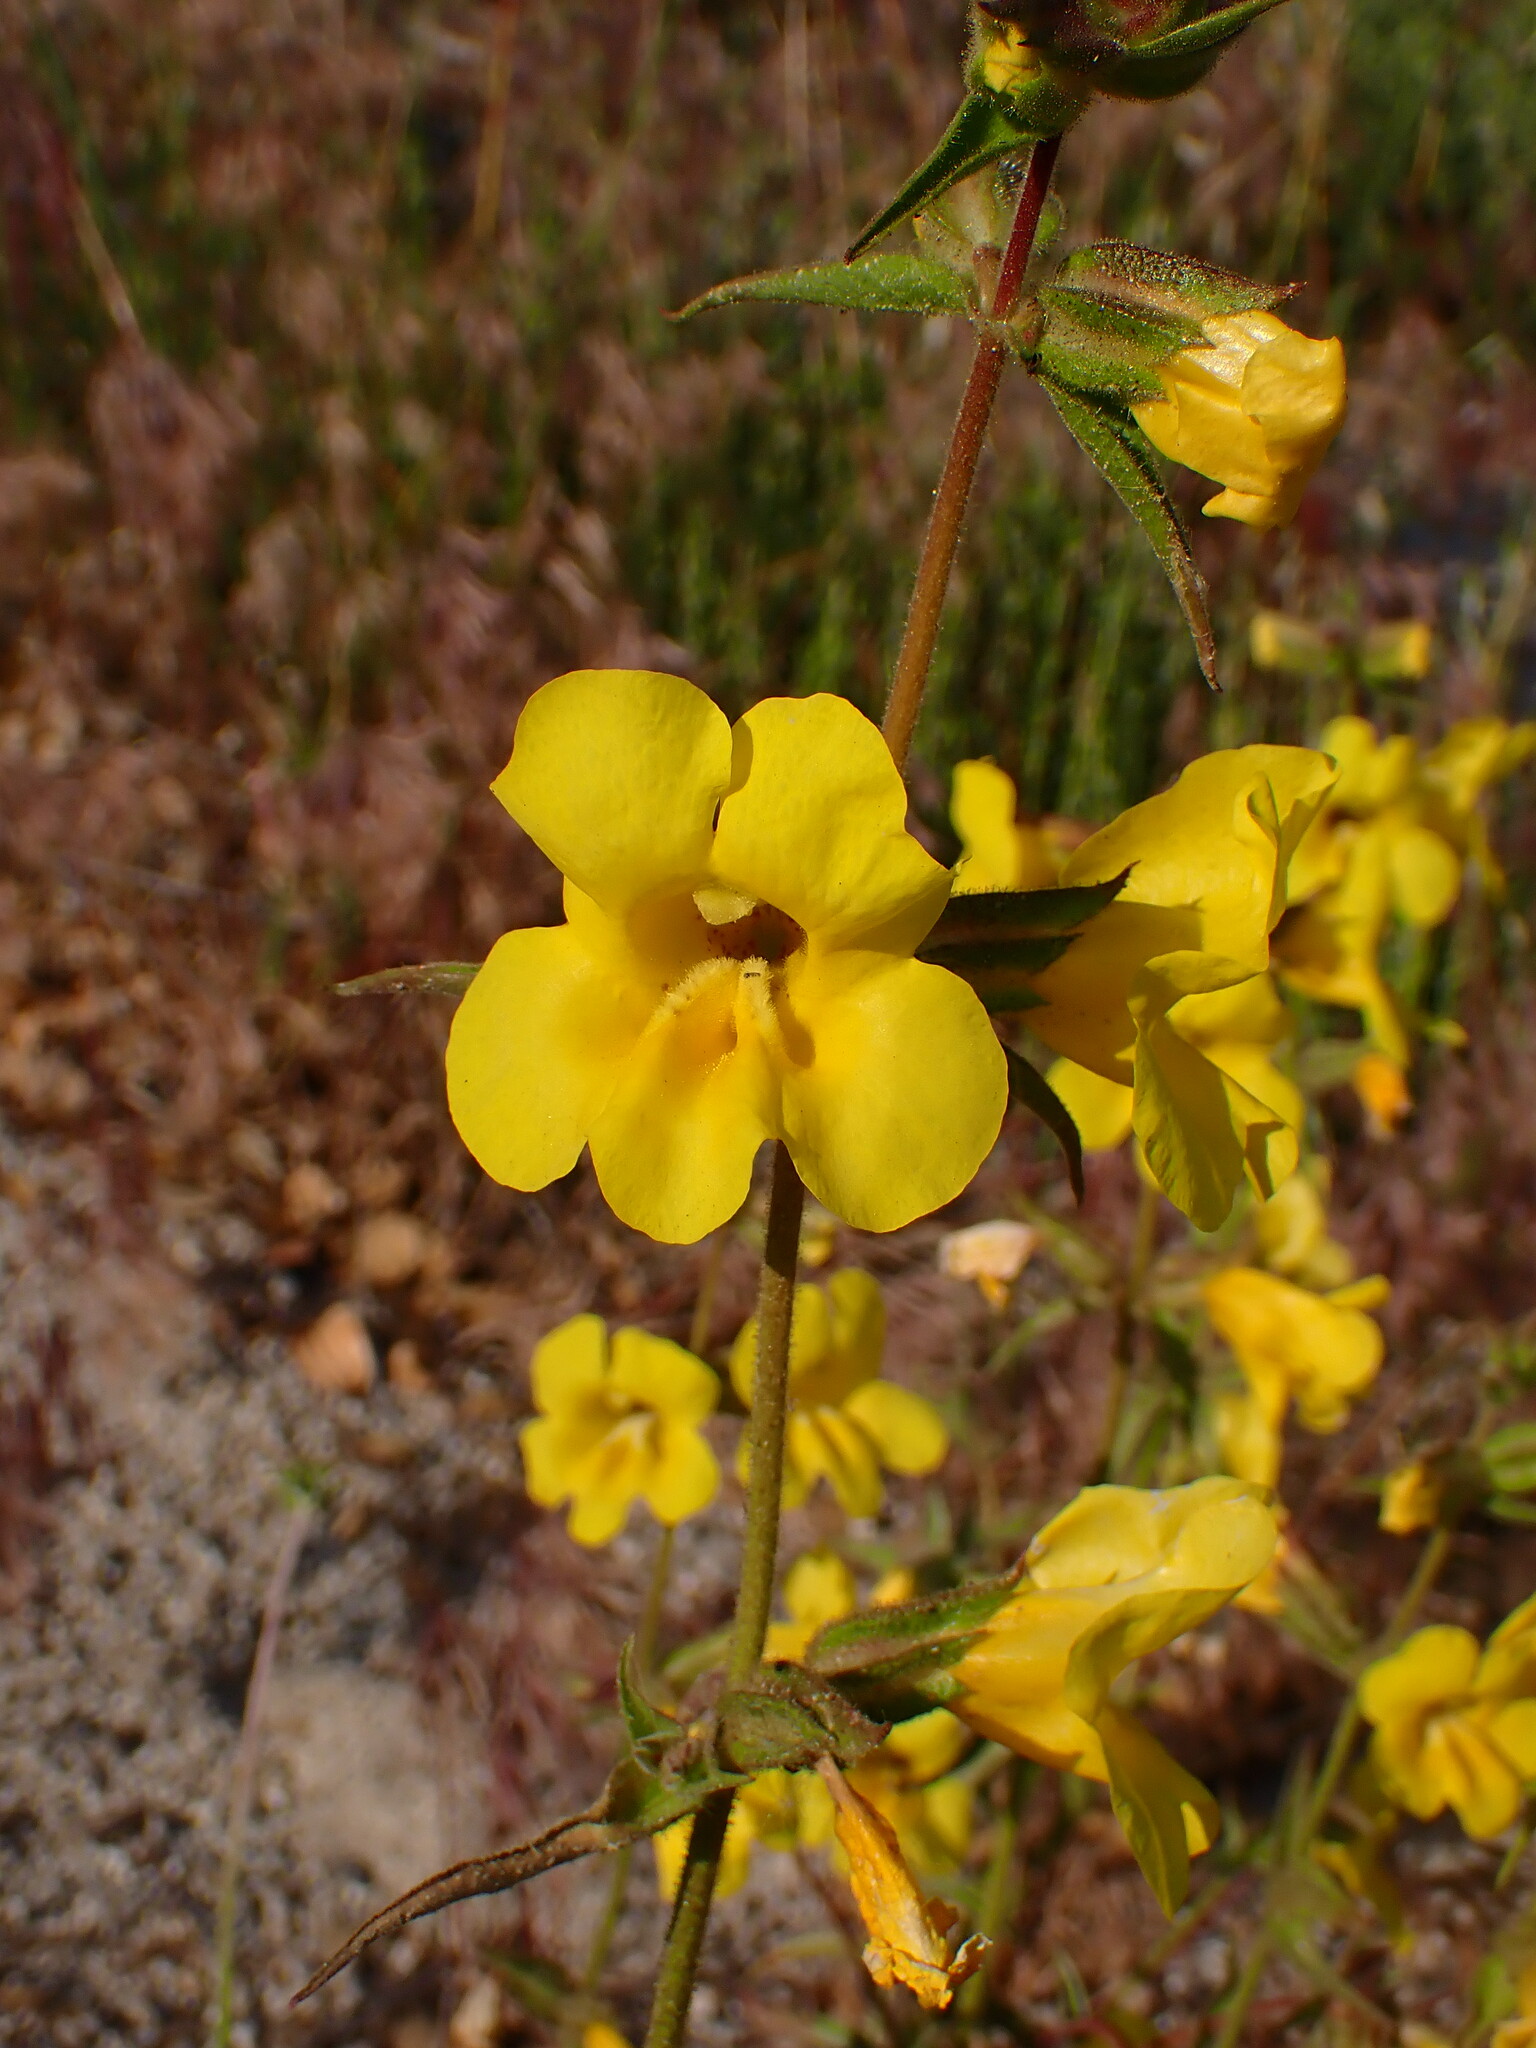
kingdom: Plantae
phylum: Tracheophyta
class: Magnoliopsida
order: Lamiales
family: Phrymaceae
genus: Diplacus
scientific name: Diplacus brevipes
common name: Wide-throat yellow monkey-flower
